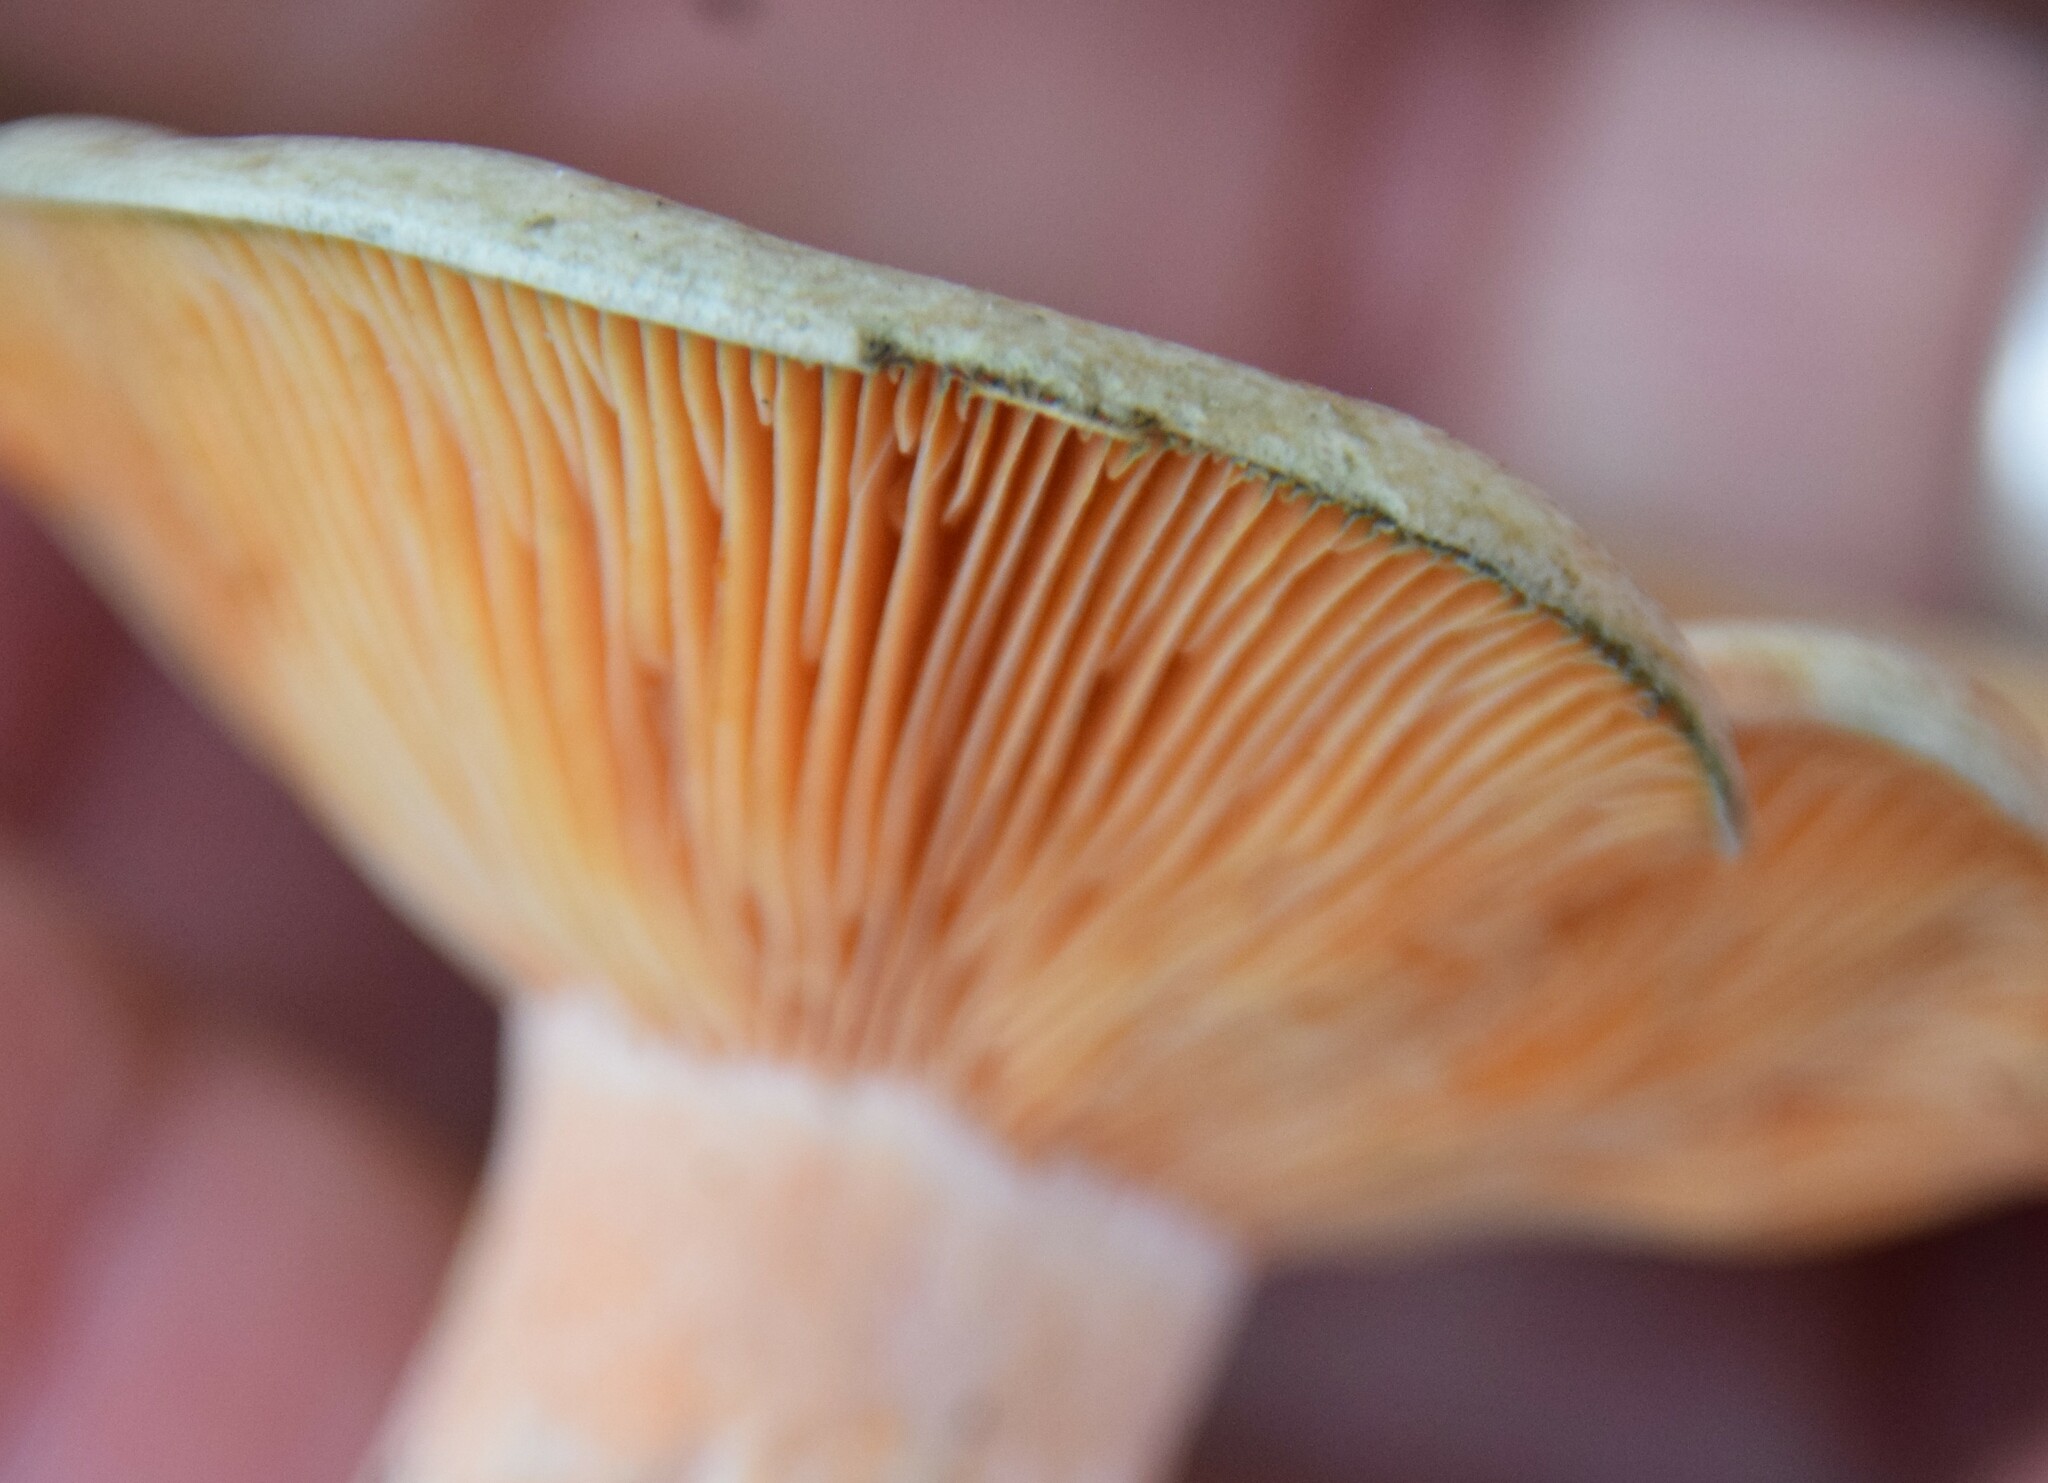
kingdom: Fungi
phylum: Basidiomycota
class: Agaricomycetes
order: Russulales
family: Russulaceae
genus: Lactarius
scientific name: Lactarius deterrimus
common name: False saffron milkcap
